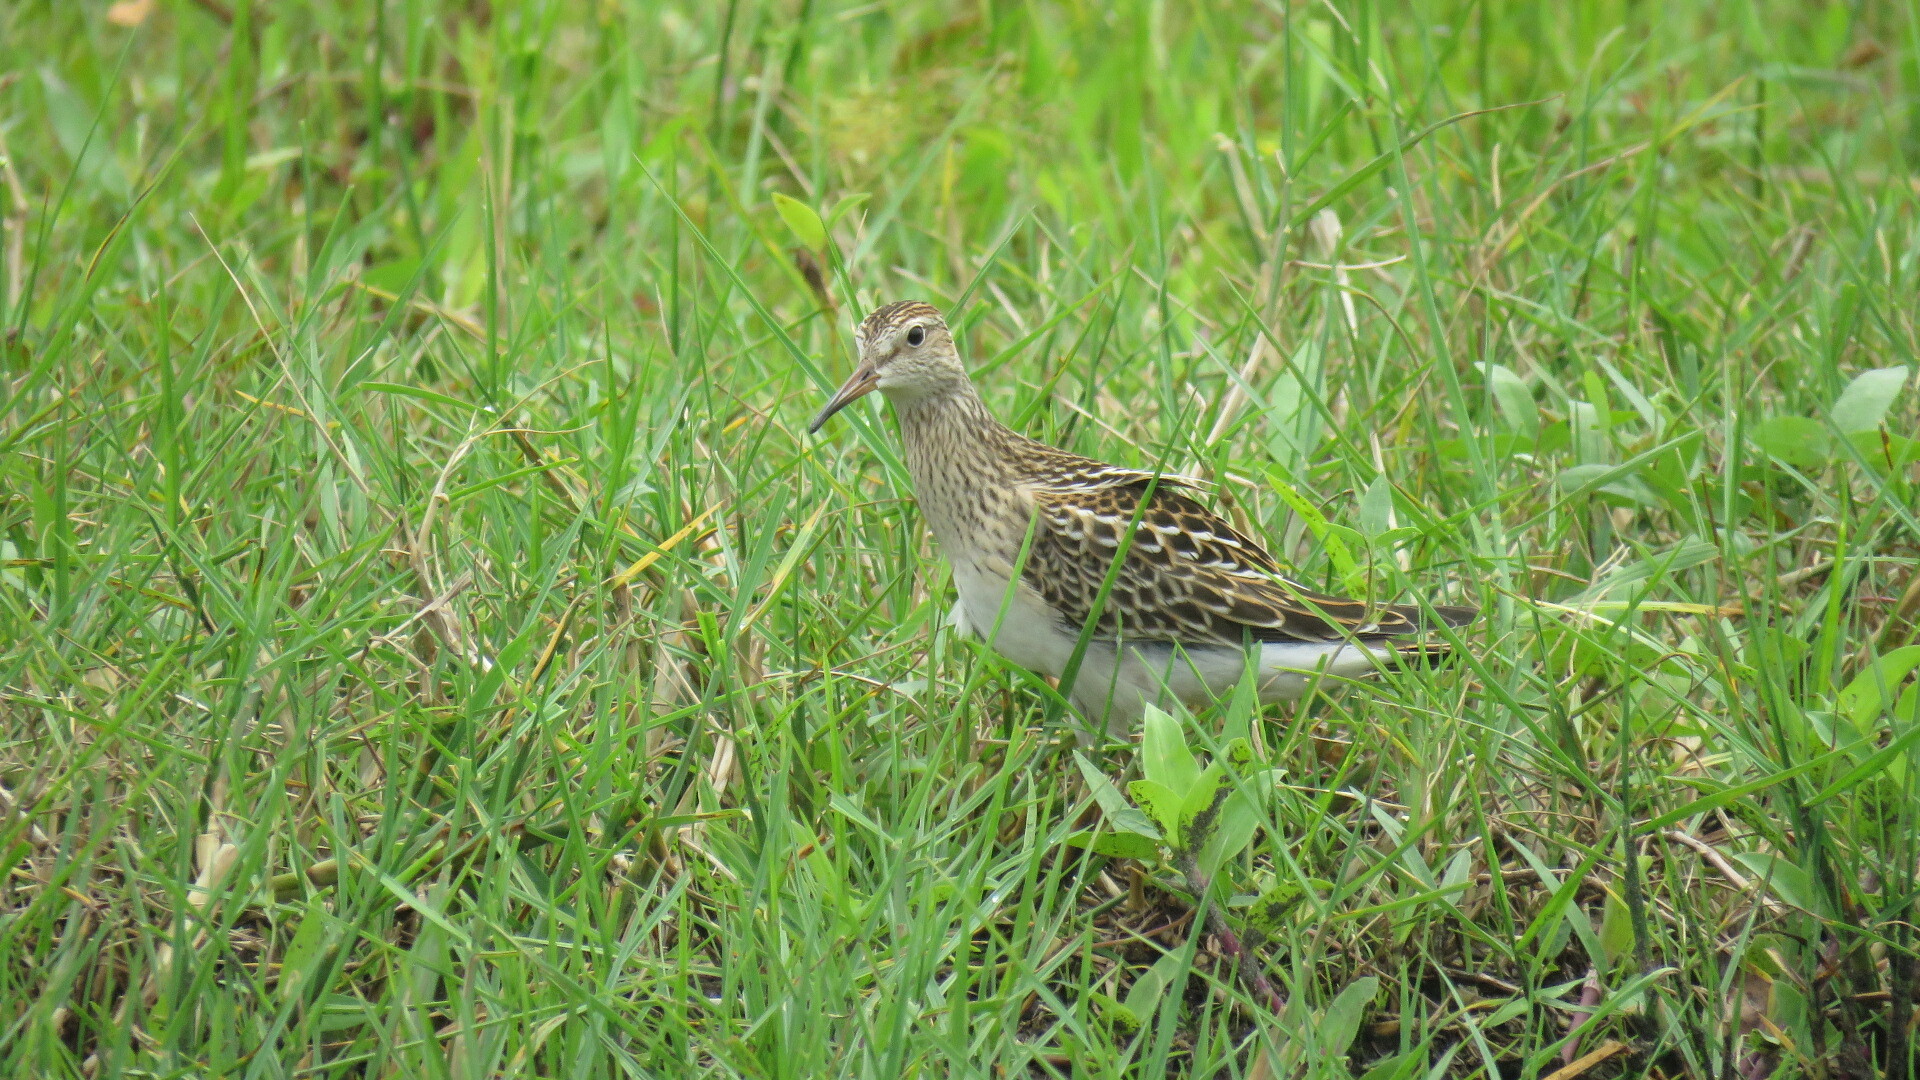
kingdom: Animalia
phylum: Chordata
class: Aves
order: Charadriiformes
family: Scolopacidae
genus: Calidris
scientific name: Calidris melanotos
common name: Pectoral sandpiper
